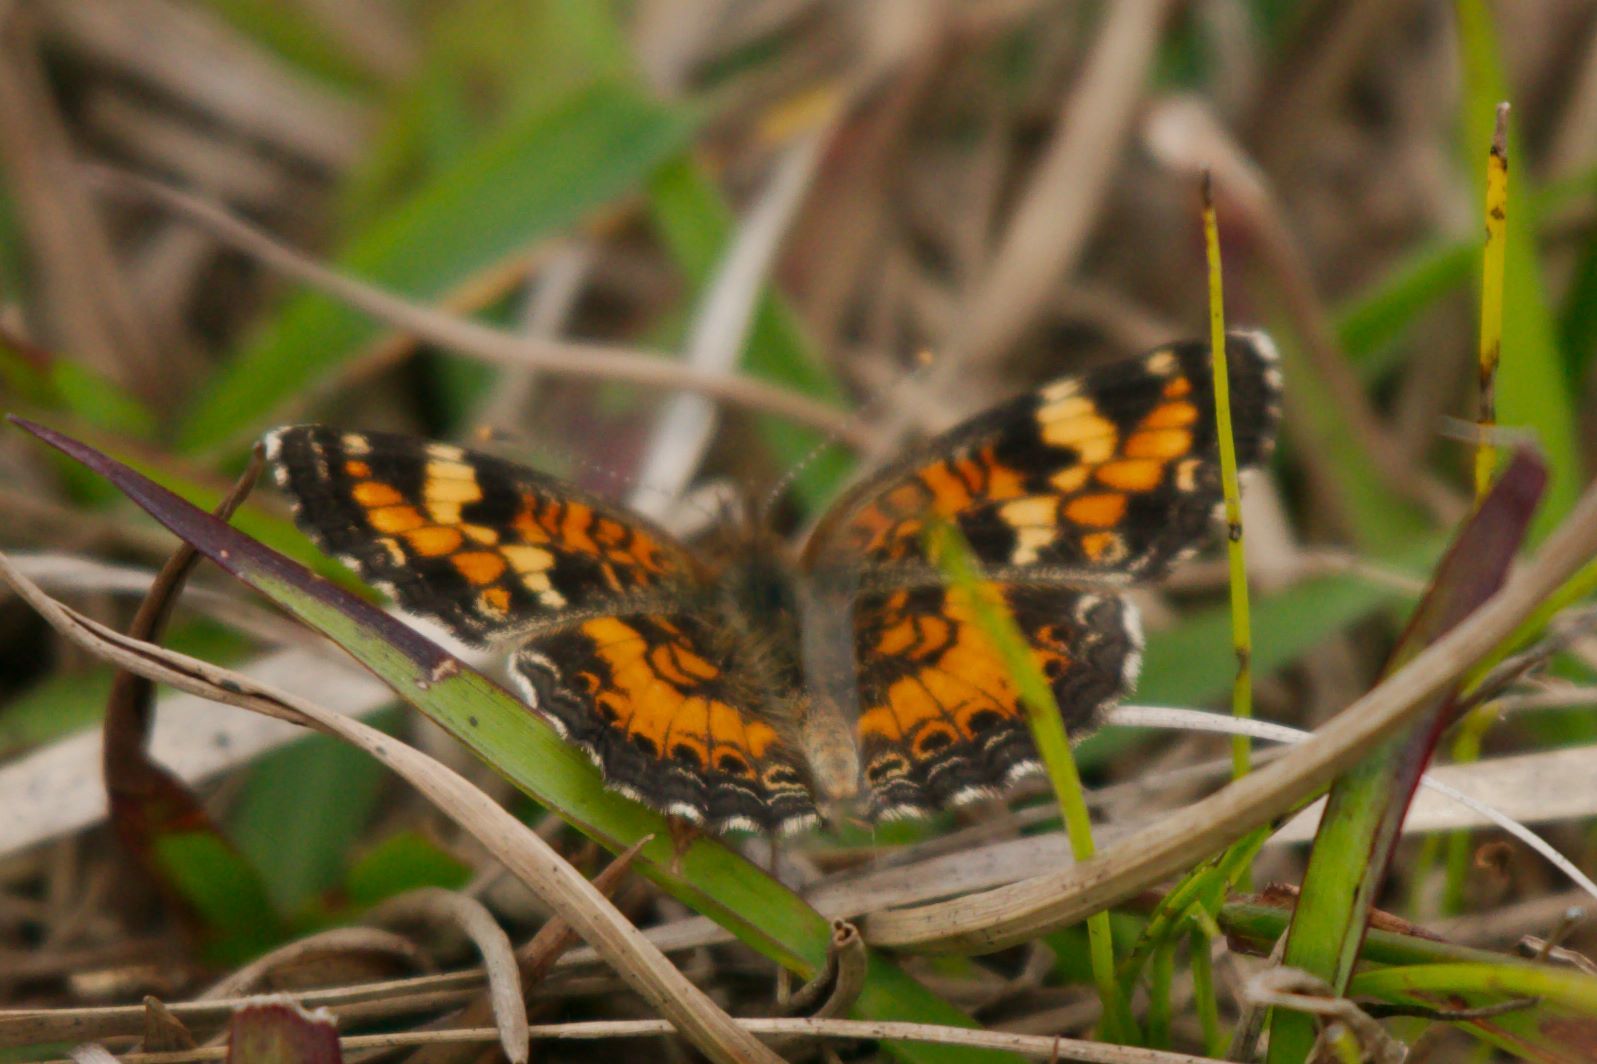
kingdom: Animalia
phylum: Arthropoda
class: Insecta
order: Lepidoptera
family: Nymphalidae
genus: Phyciodes
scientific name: Phyciodes phaon
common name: Phaon crescent
